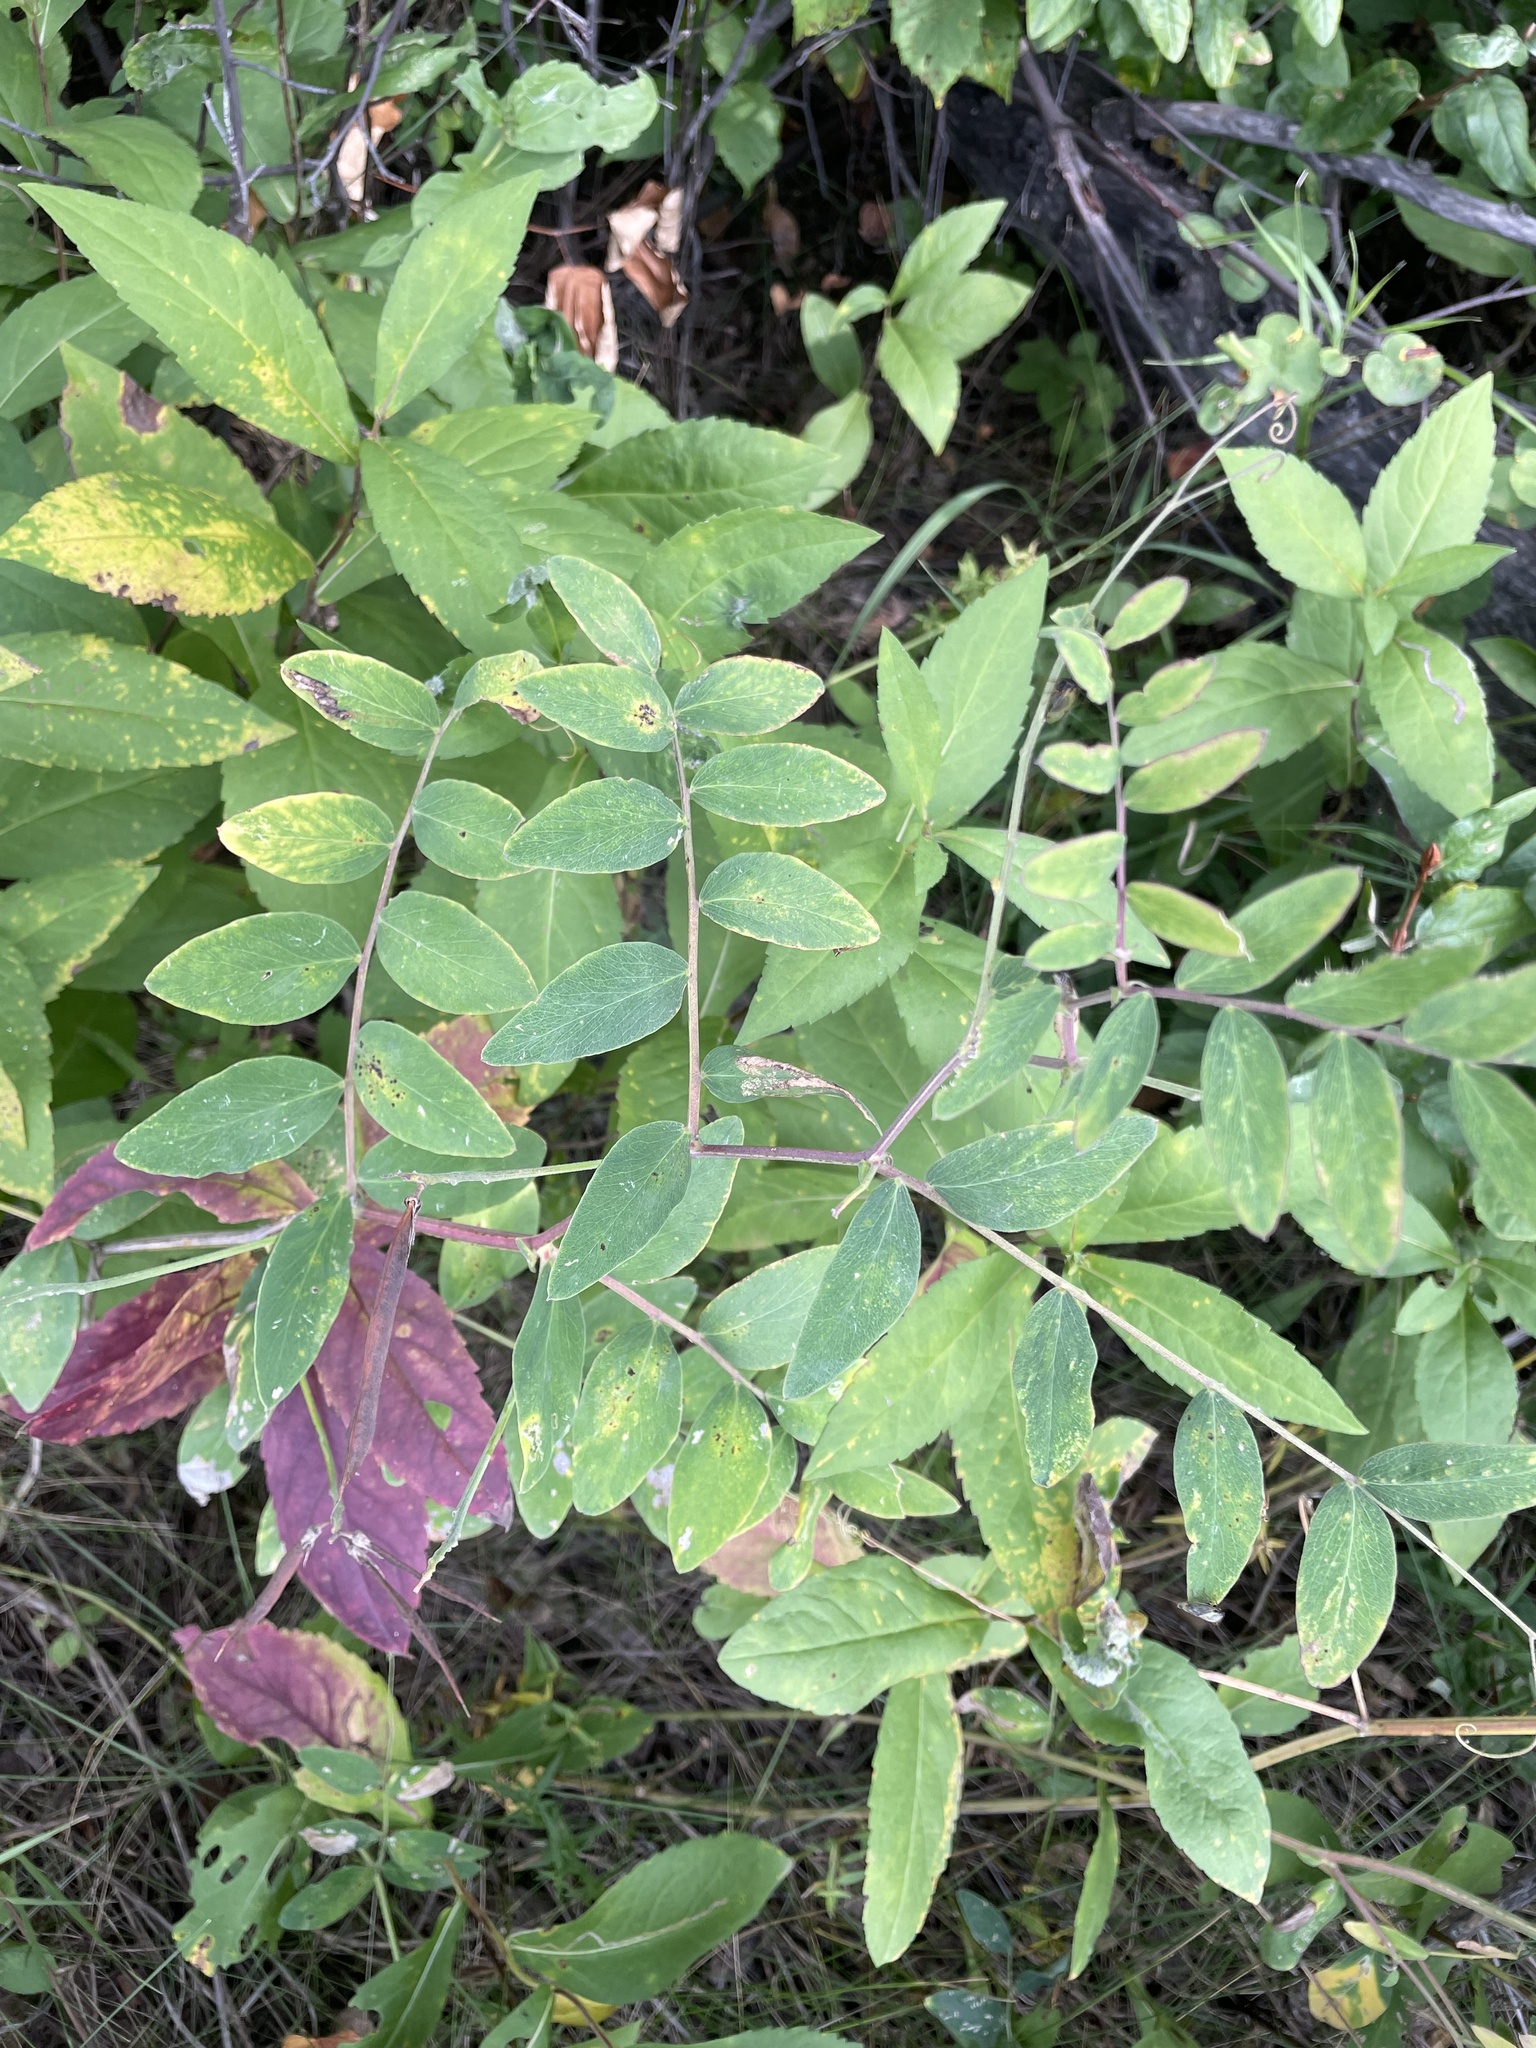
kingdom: Plantae
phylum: Tracheophyta
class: Magnoliopsida
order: Fabales
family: Fabaceae
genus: Lathyrus
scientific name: Lathyrus venosus
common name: Forest-pea
